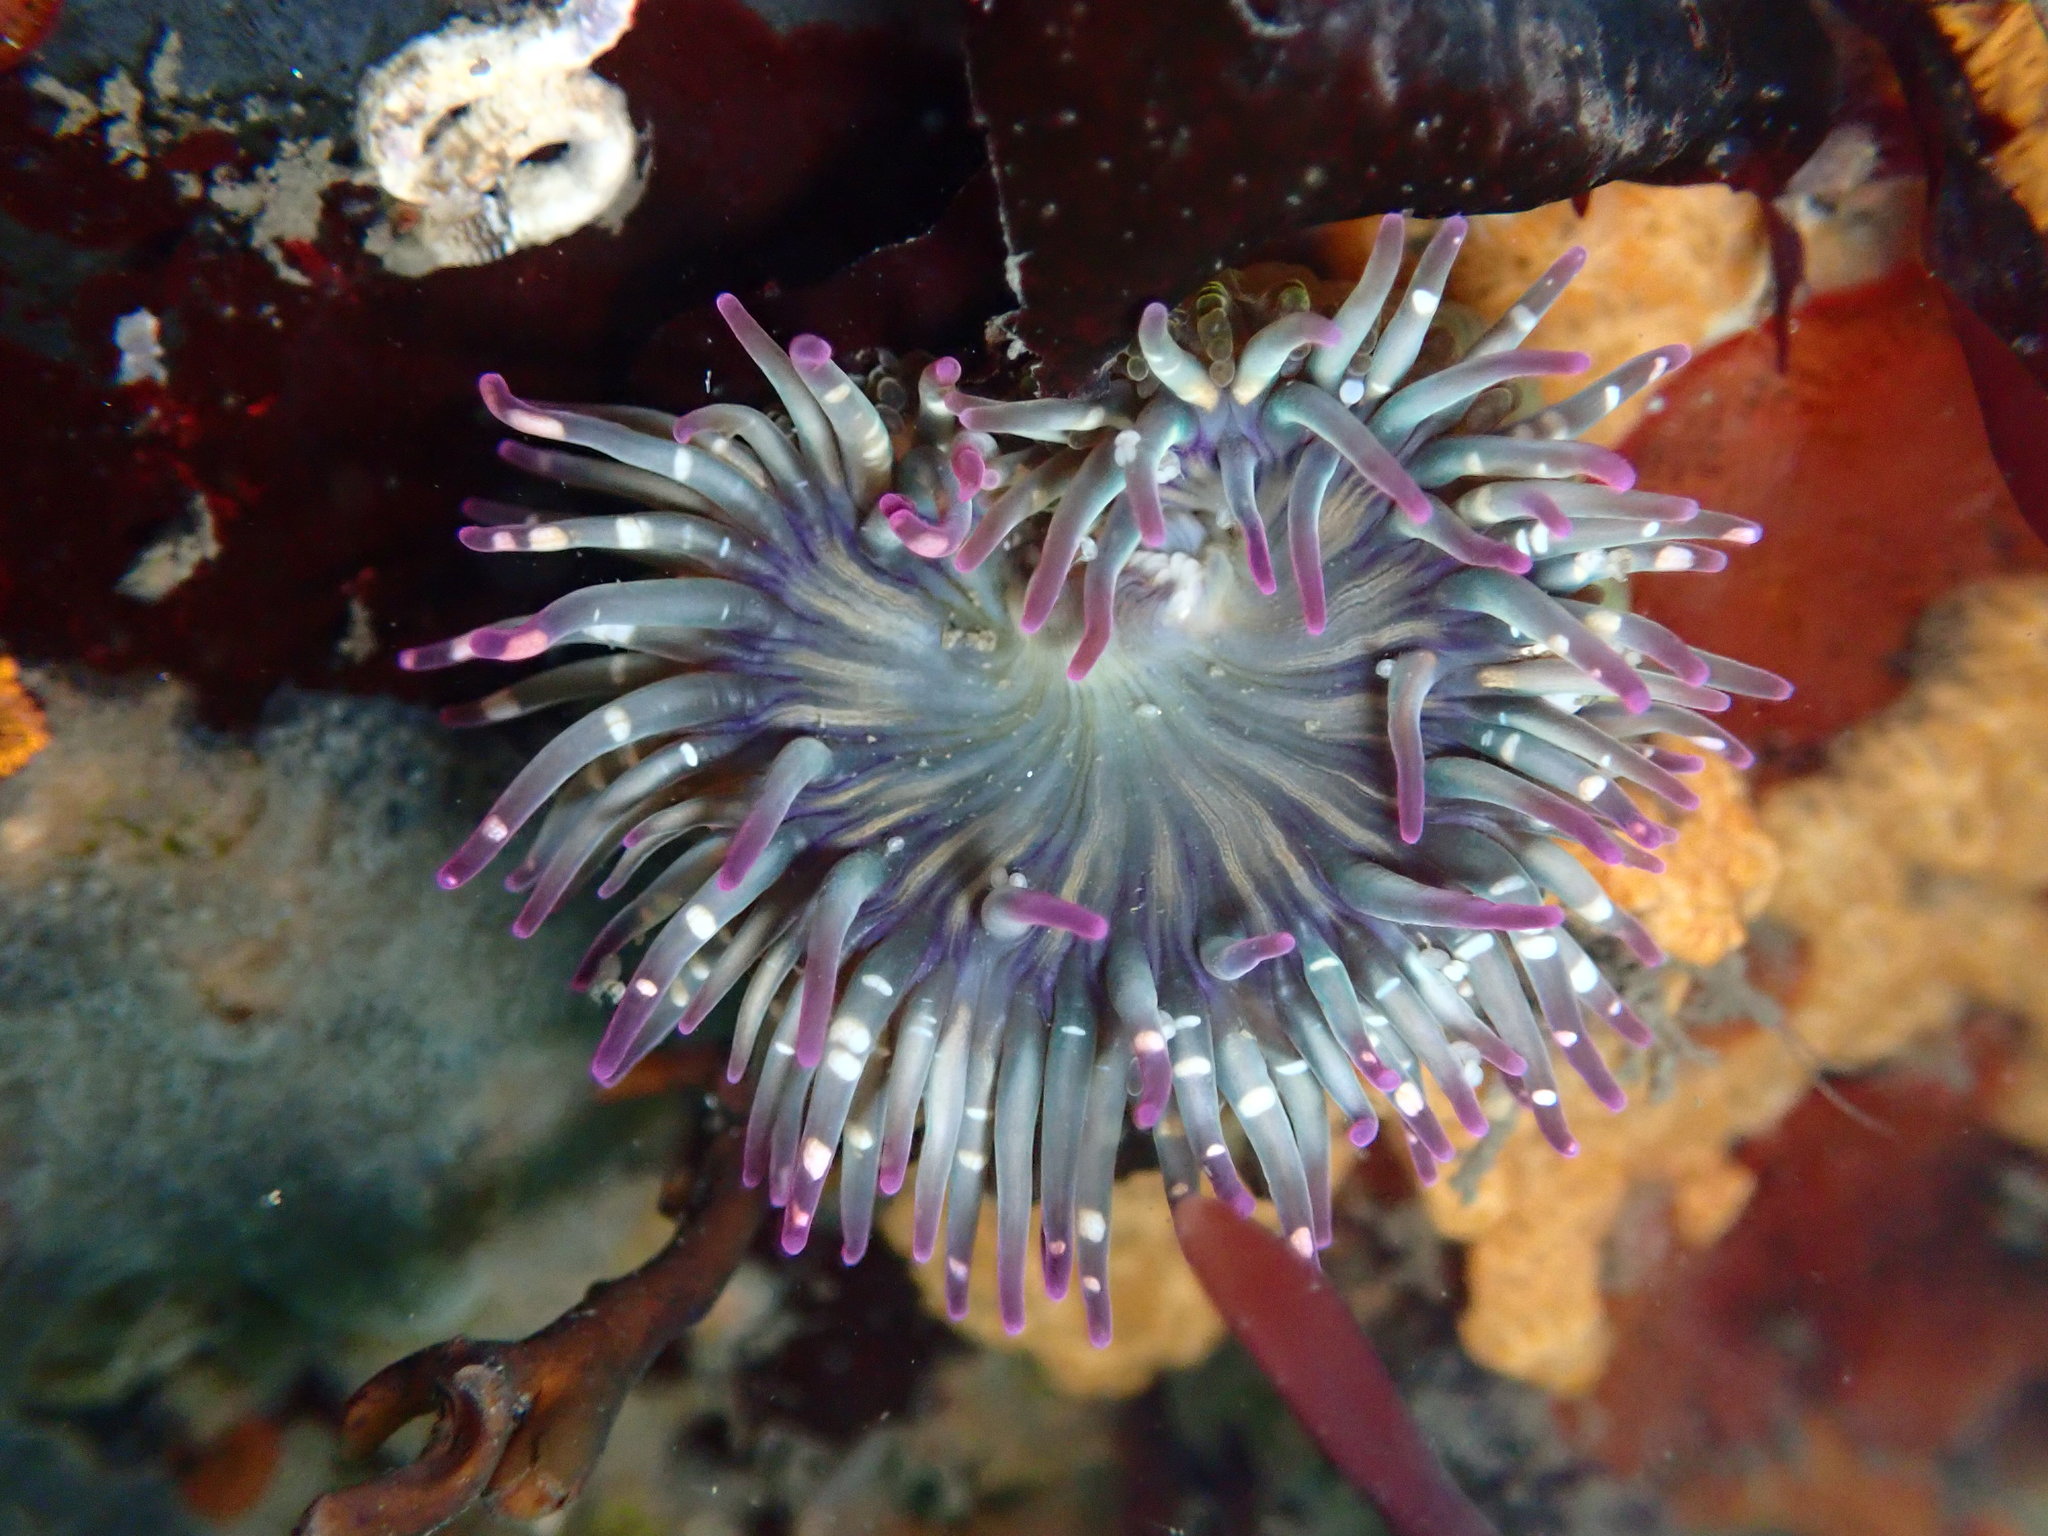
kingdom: Animalia
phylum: Cnidaria
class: Anthozoa
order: Actiniaria
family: Actiniidae
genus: Anthopleura
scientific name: Anthopleura elegantissima
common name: Clonal anemone
